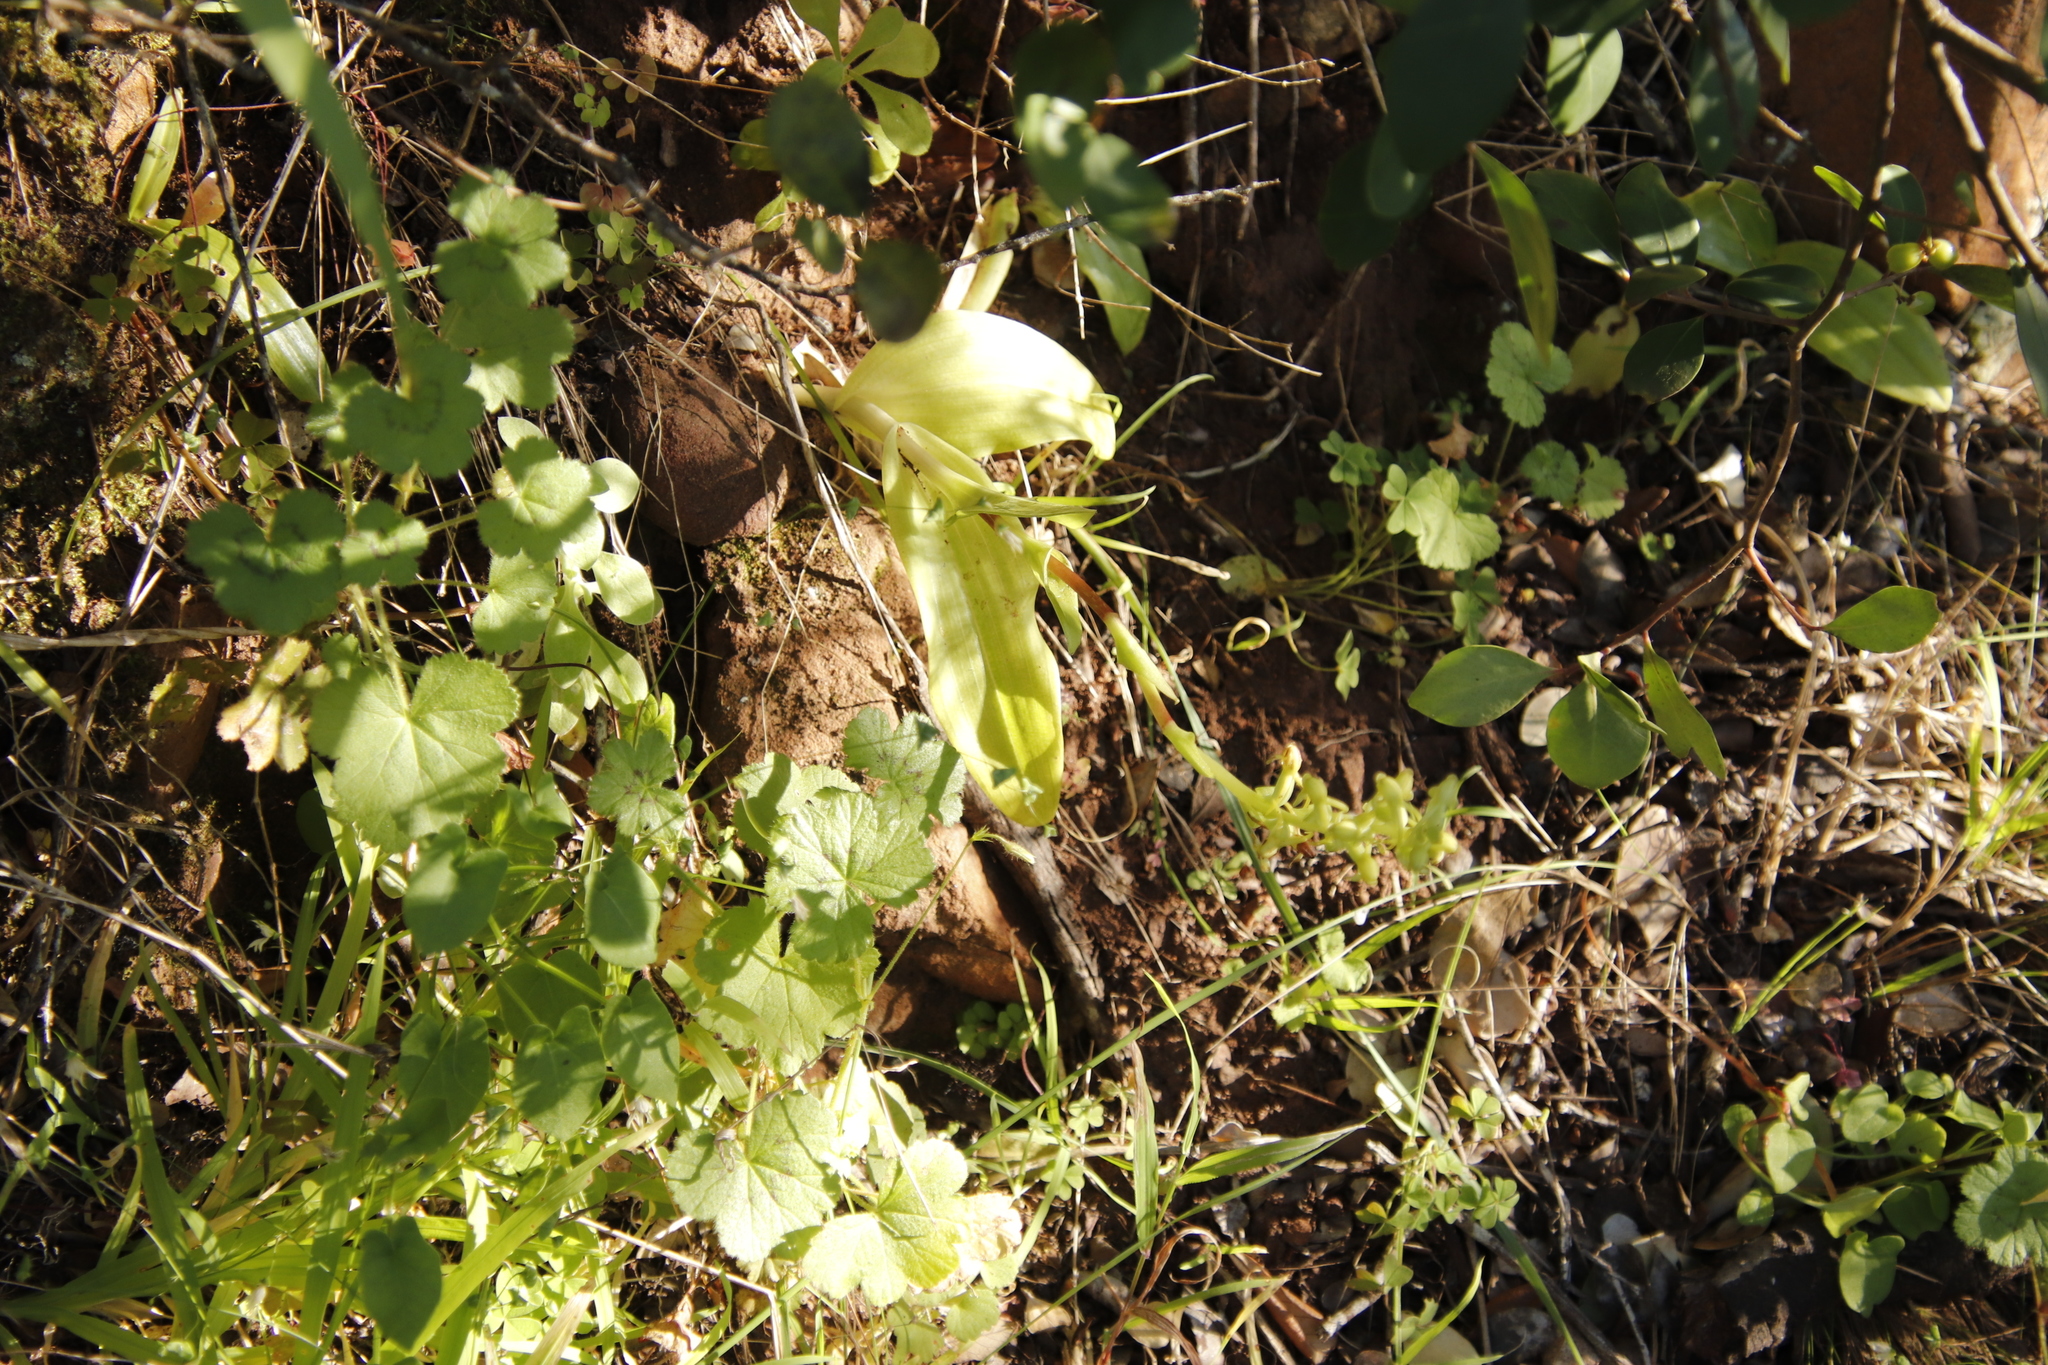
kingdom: Plantae
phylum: Tracheophyta
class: Liliopsida
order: Asparagales
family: Orchidaceae
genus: Satyrium
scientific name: Satyrium odorum
